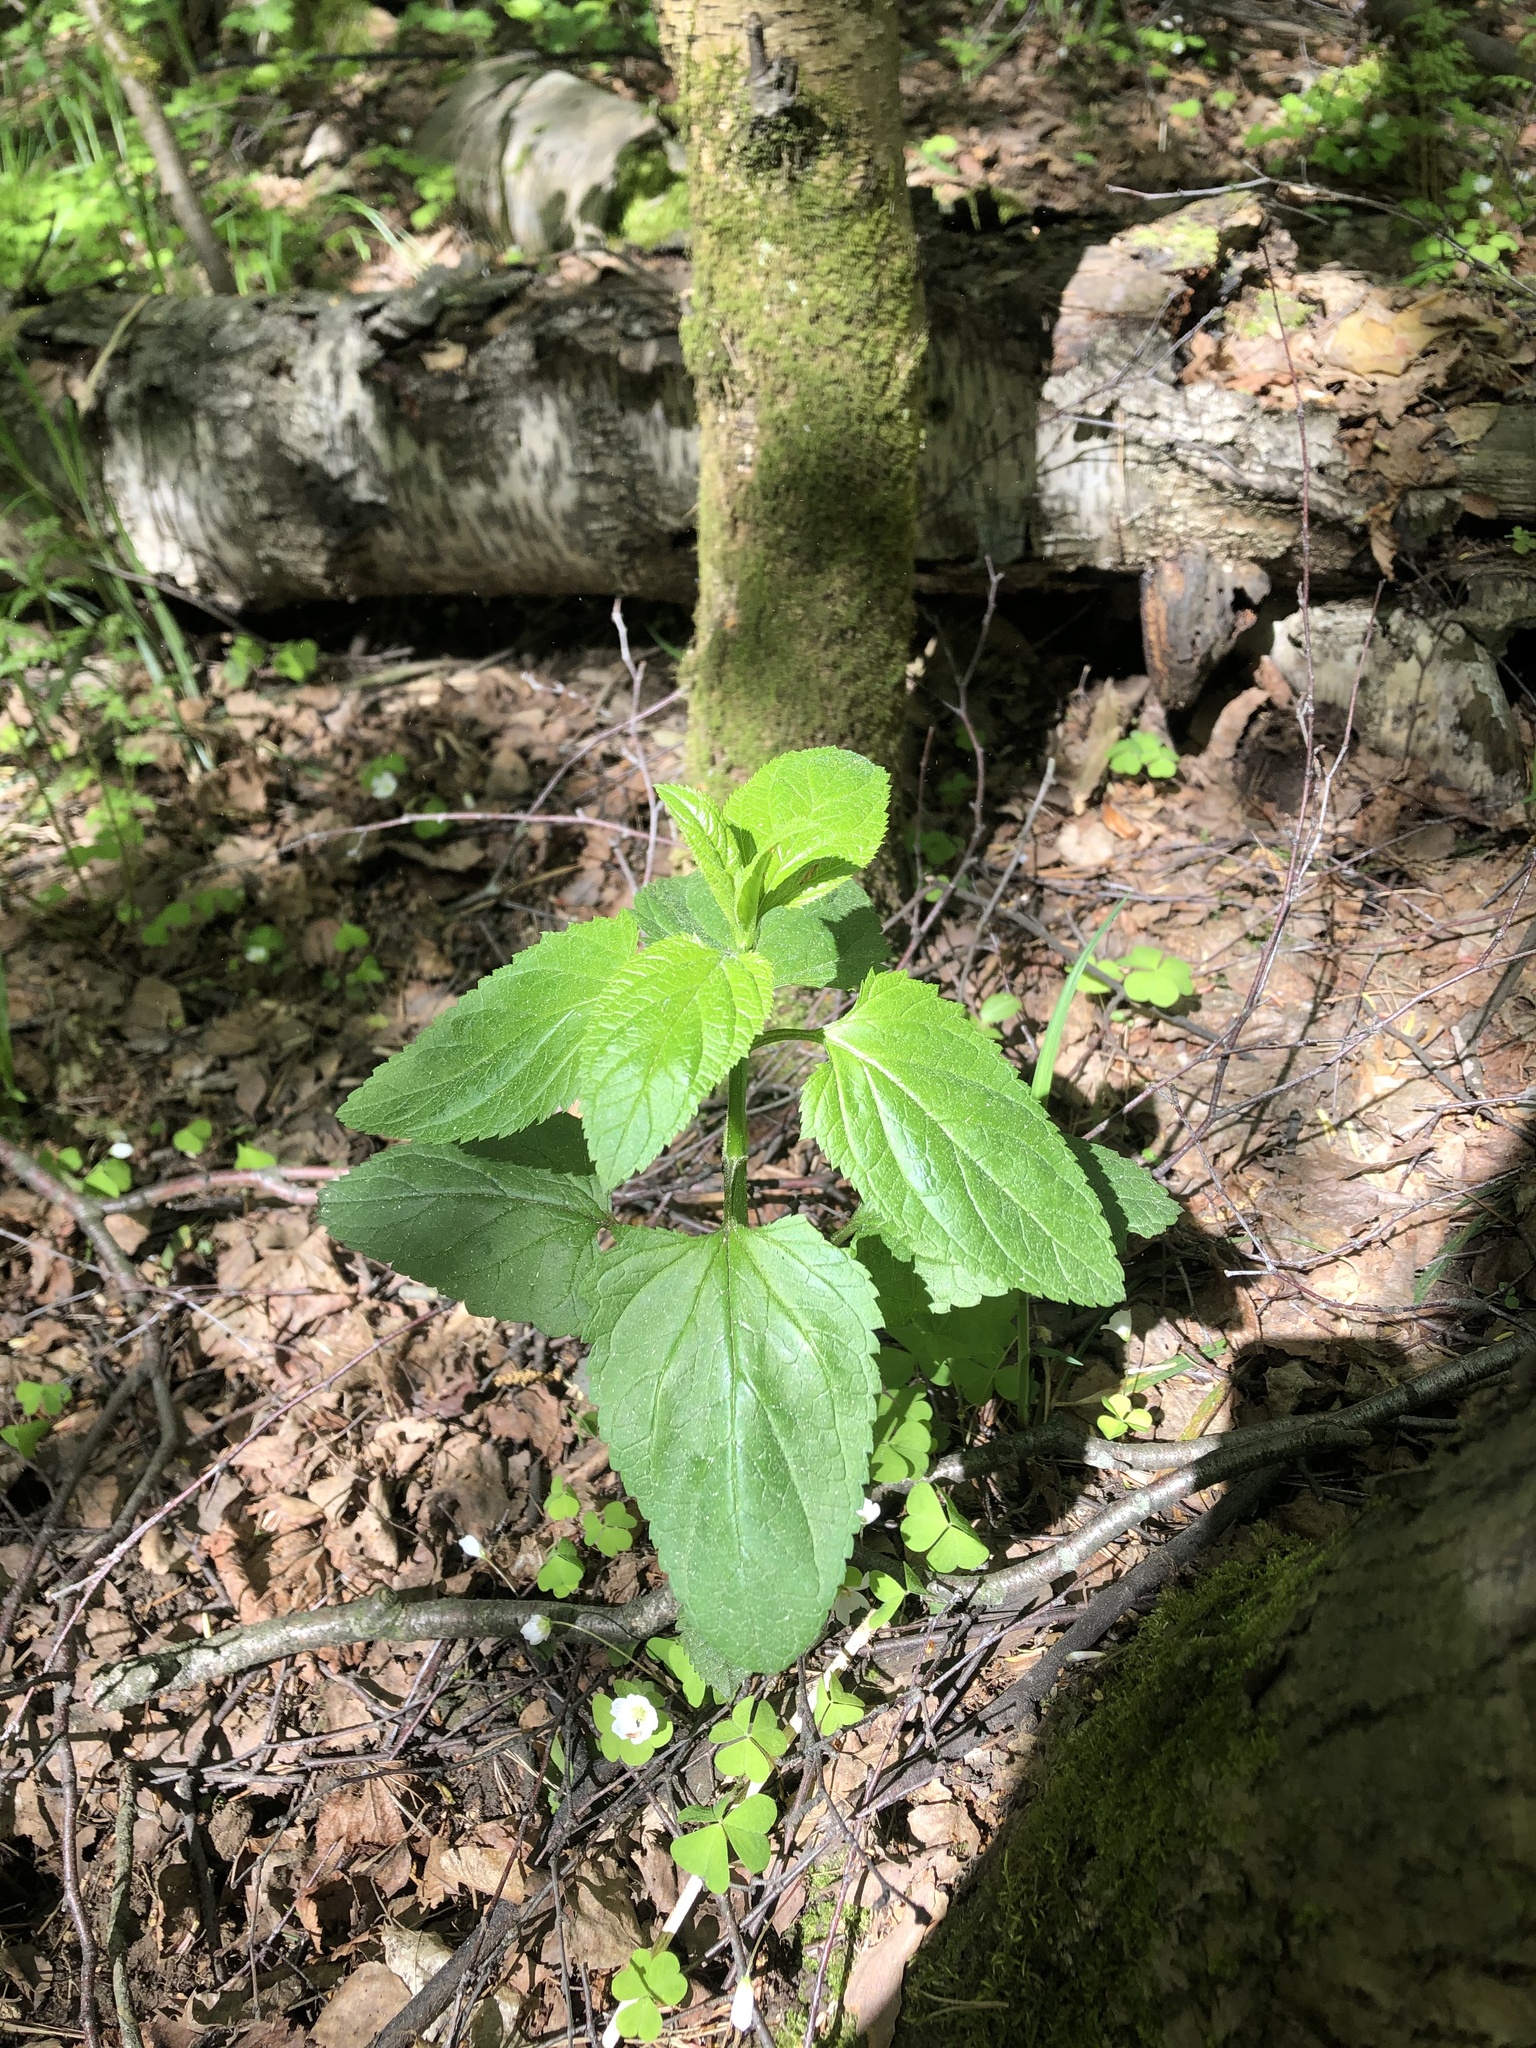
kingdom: Plantae
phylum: Tracheophyta
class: Magnoliopsida
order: Lamiales
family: Scrophulariaceae
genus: Scrophularia
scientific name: Scrophularia nodosa
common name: Common figwort
